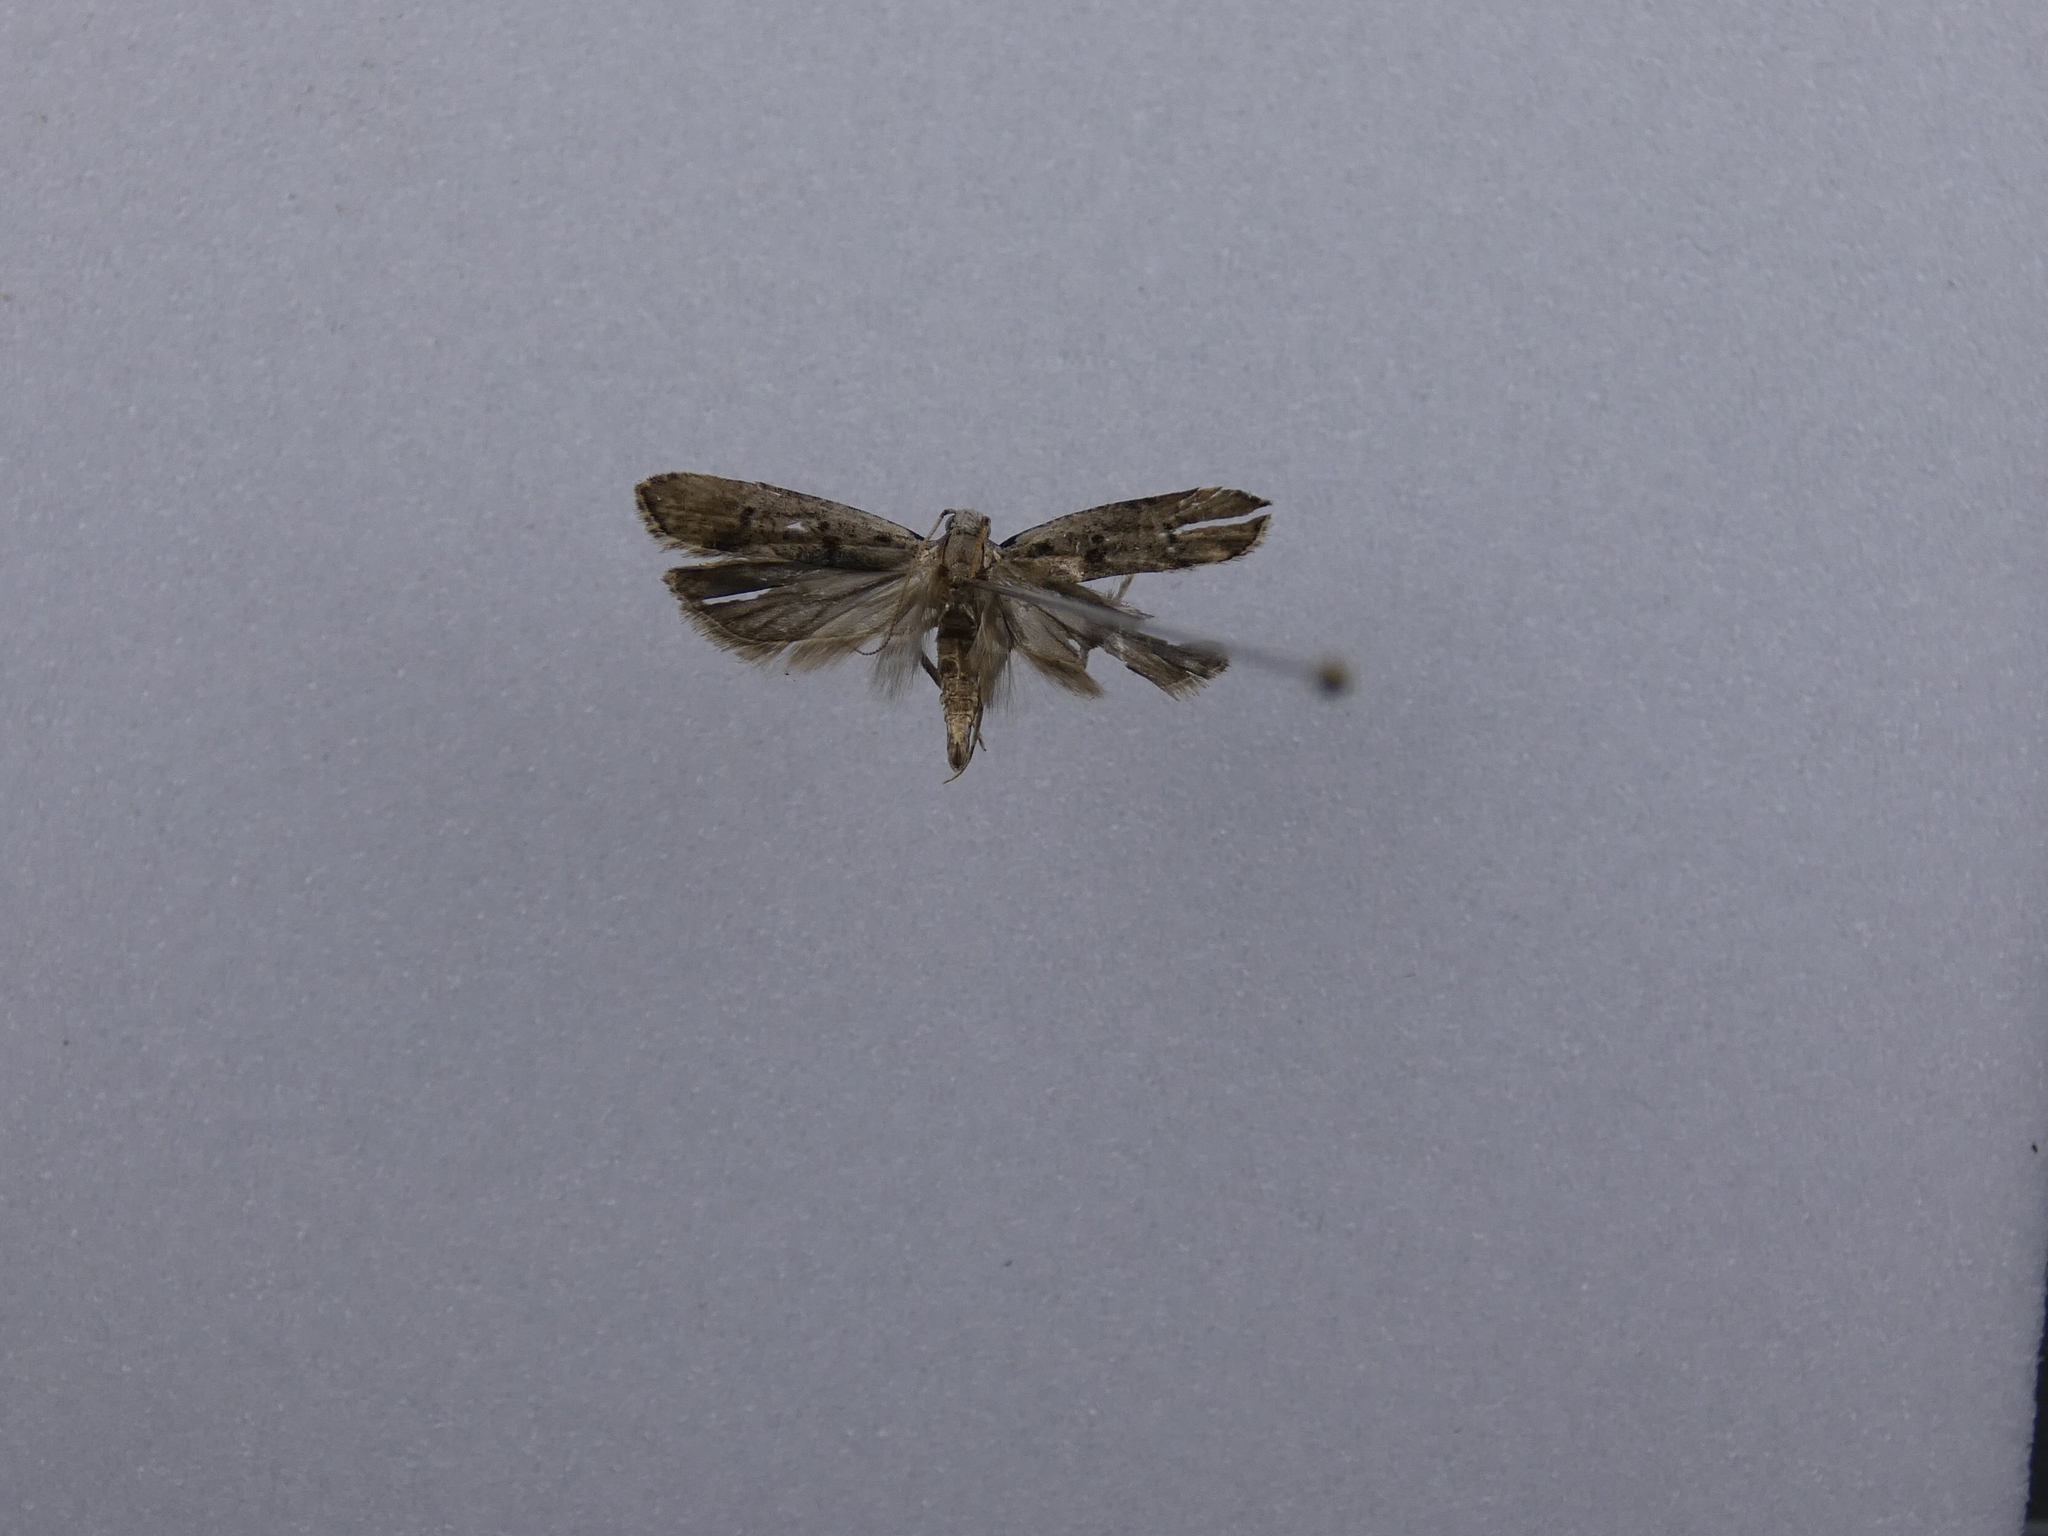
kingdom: Animalia
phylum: Arthropoda
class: Insecta
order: Lepidoptera
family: Gelechiidae
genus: Anisoplaca
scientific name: Anisoplaca achyrota
